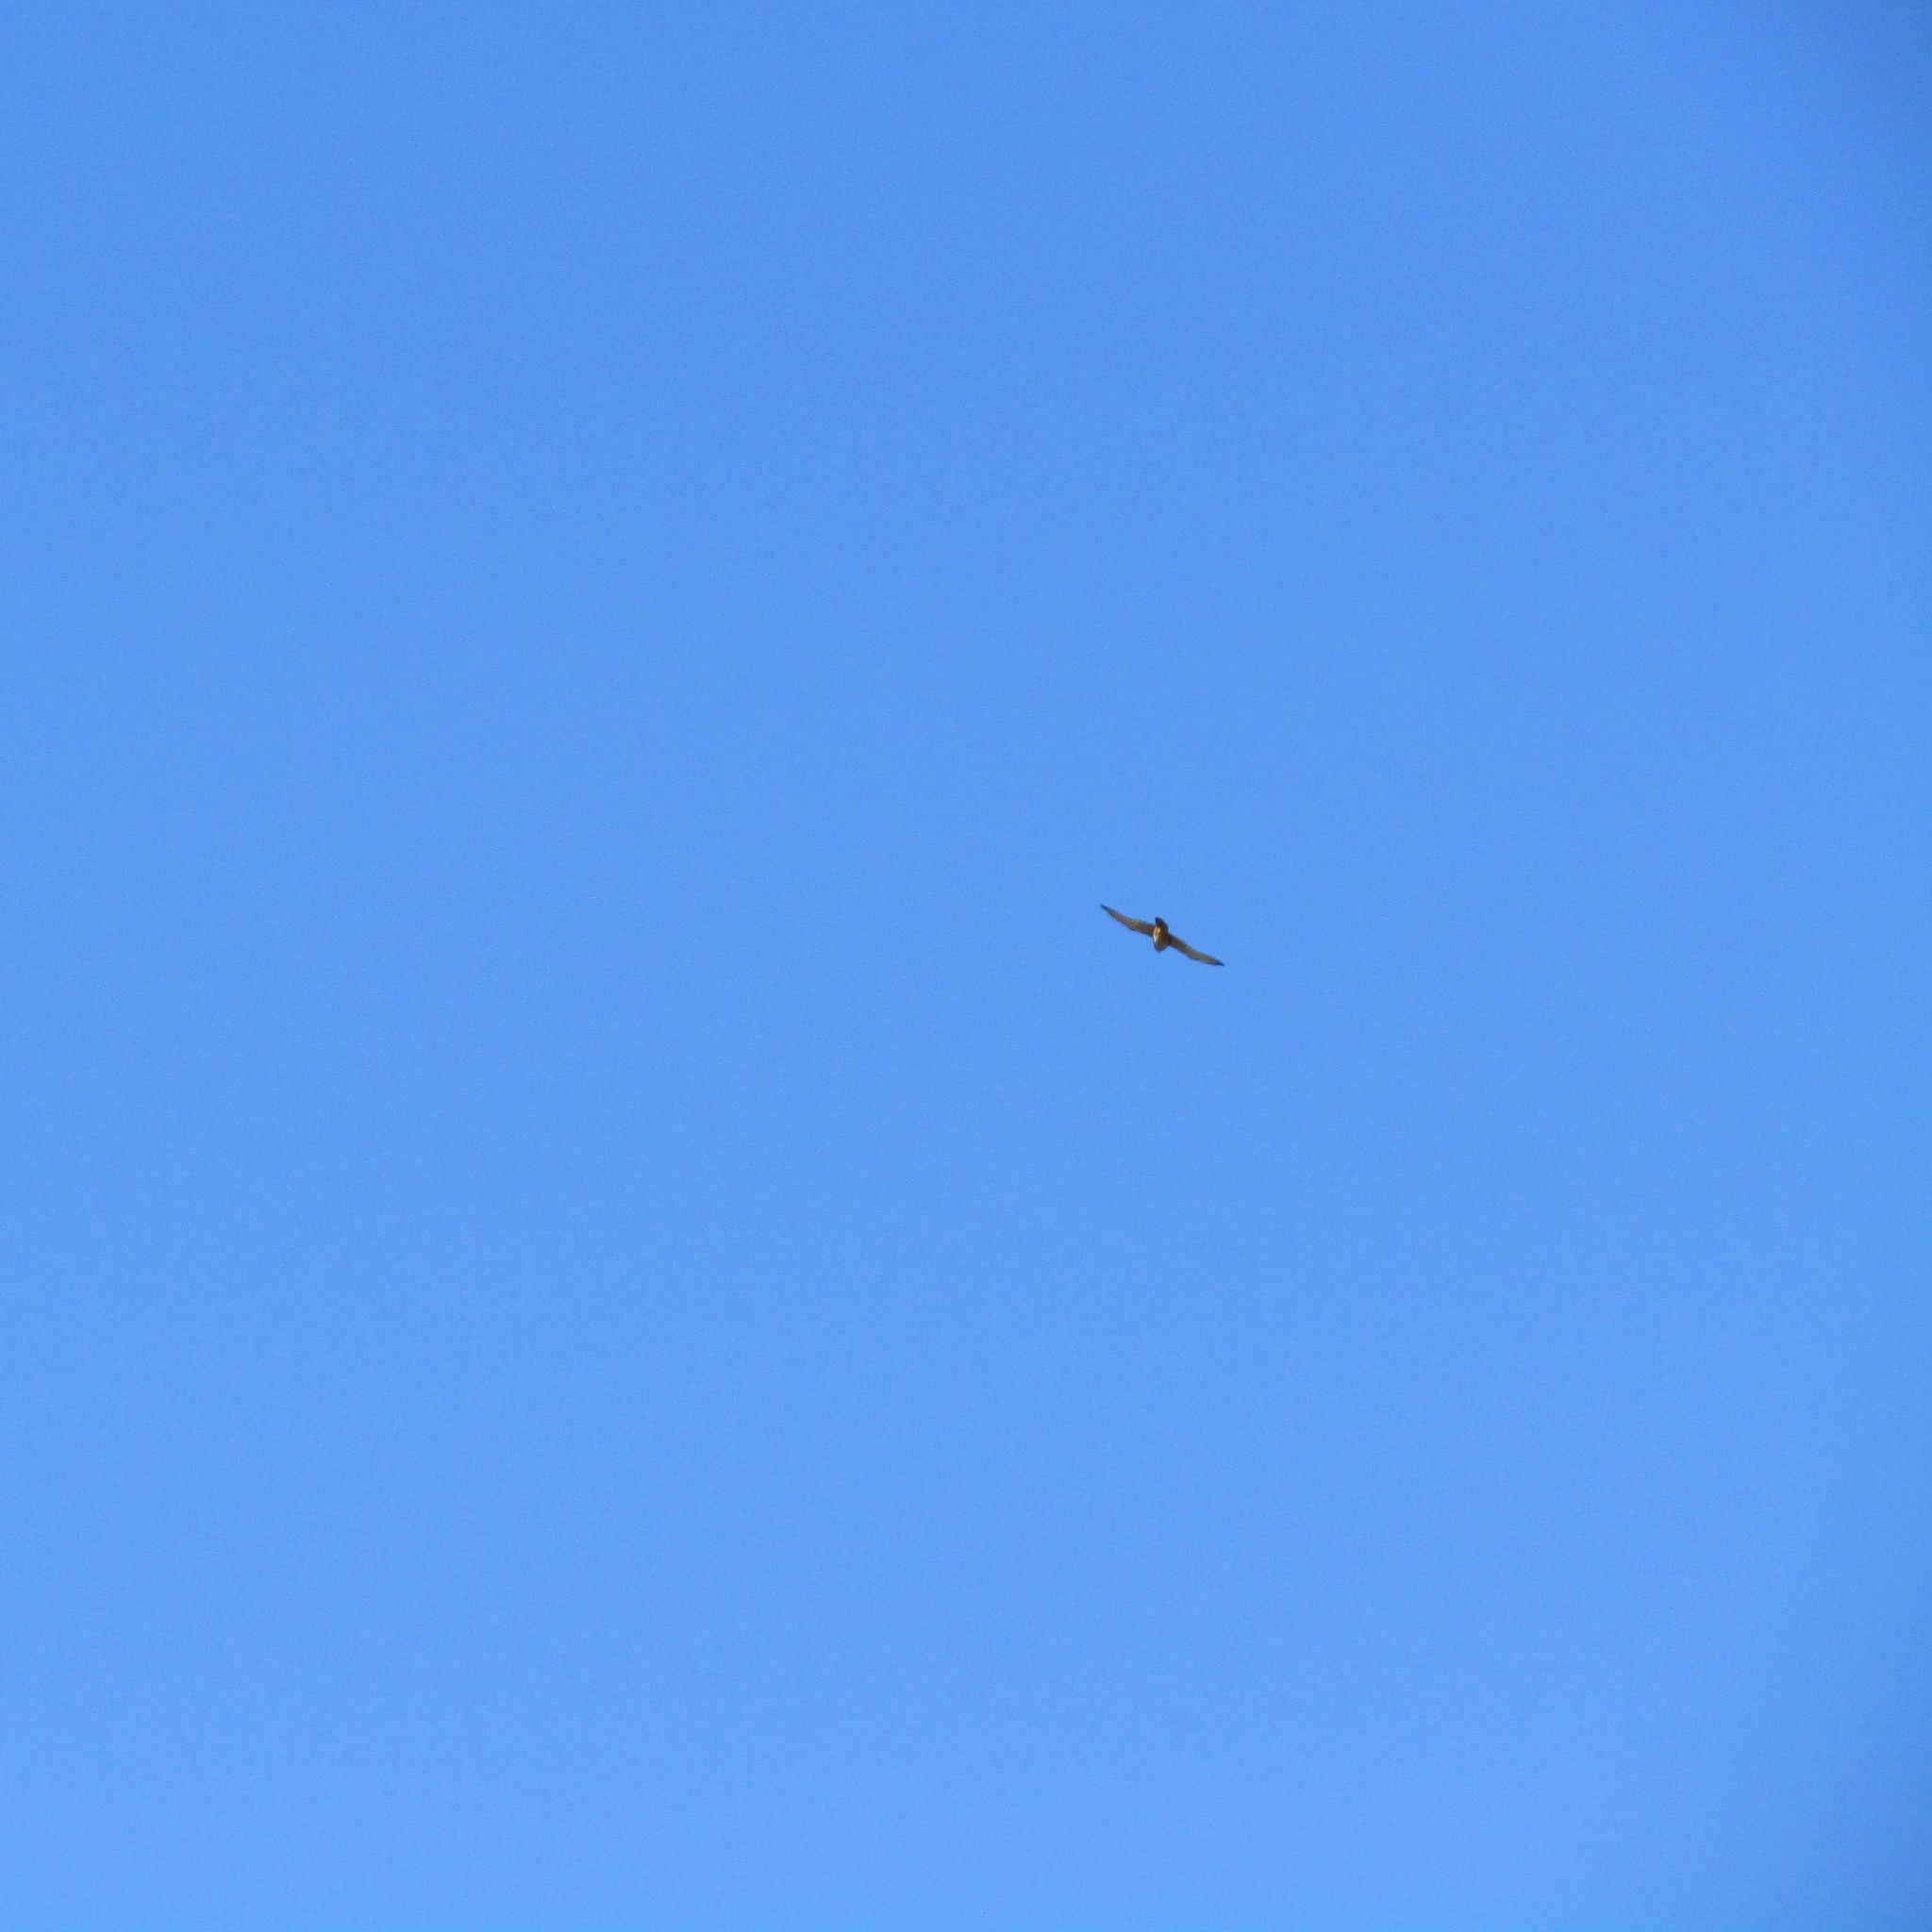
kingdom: Animalia
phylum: Chordata
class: Aves
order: Falconiformes
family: Falconidae
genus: Falco
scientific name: Falco novaeseelandiae
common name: New zealand falcon
